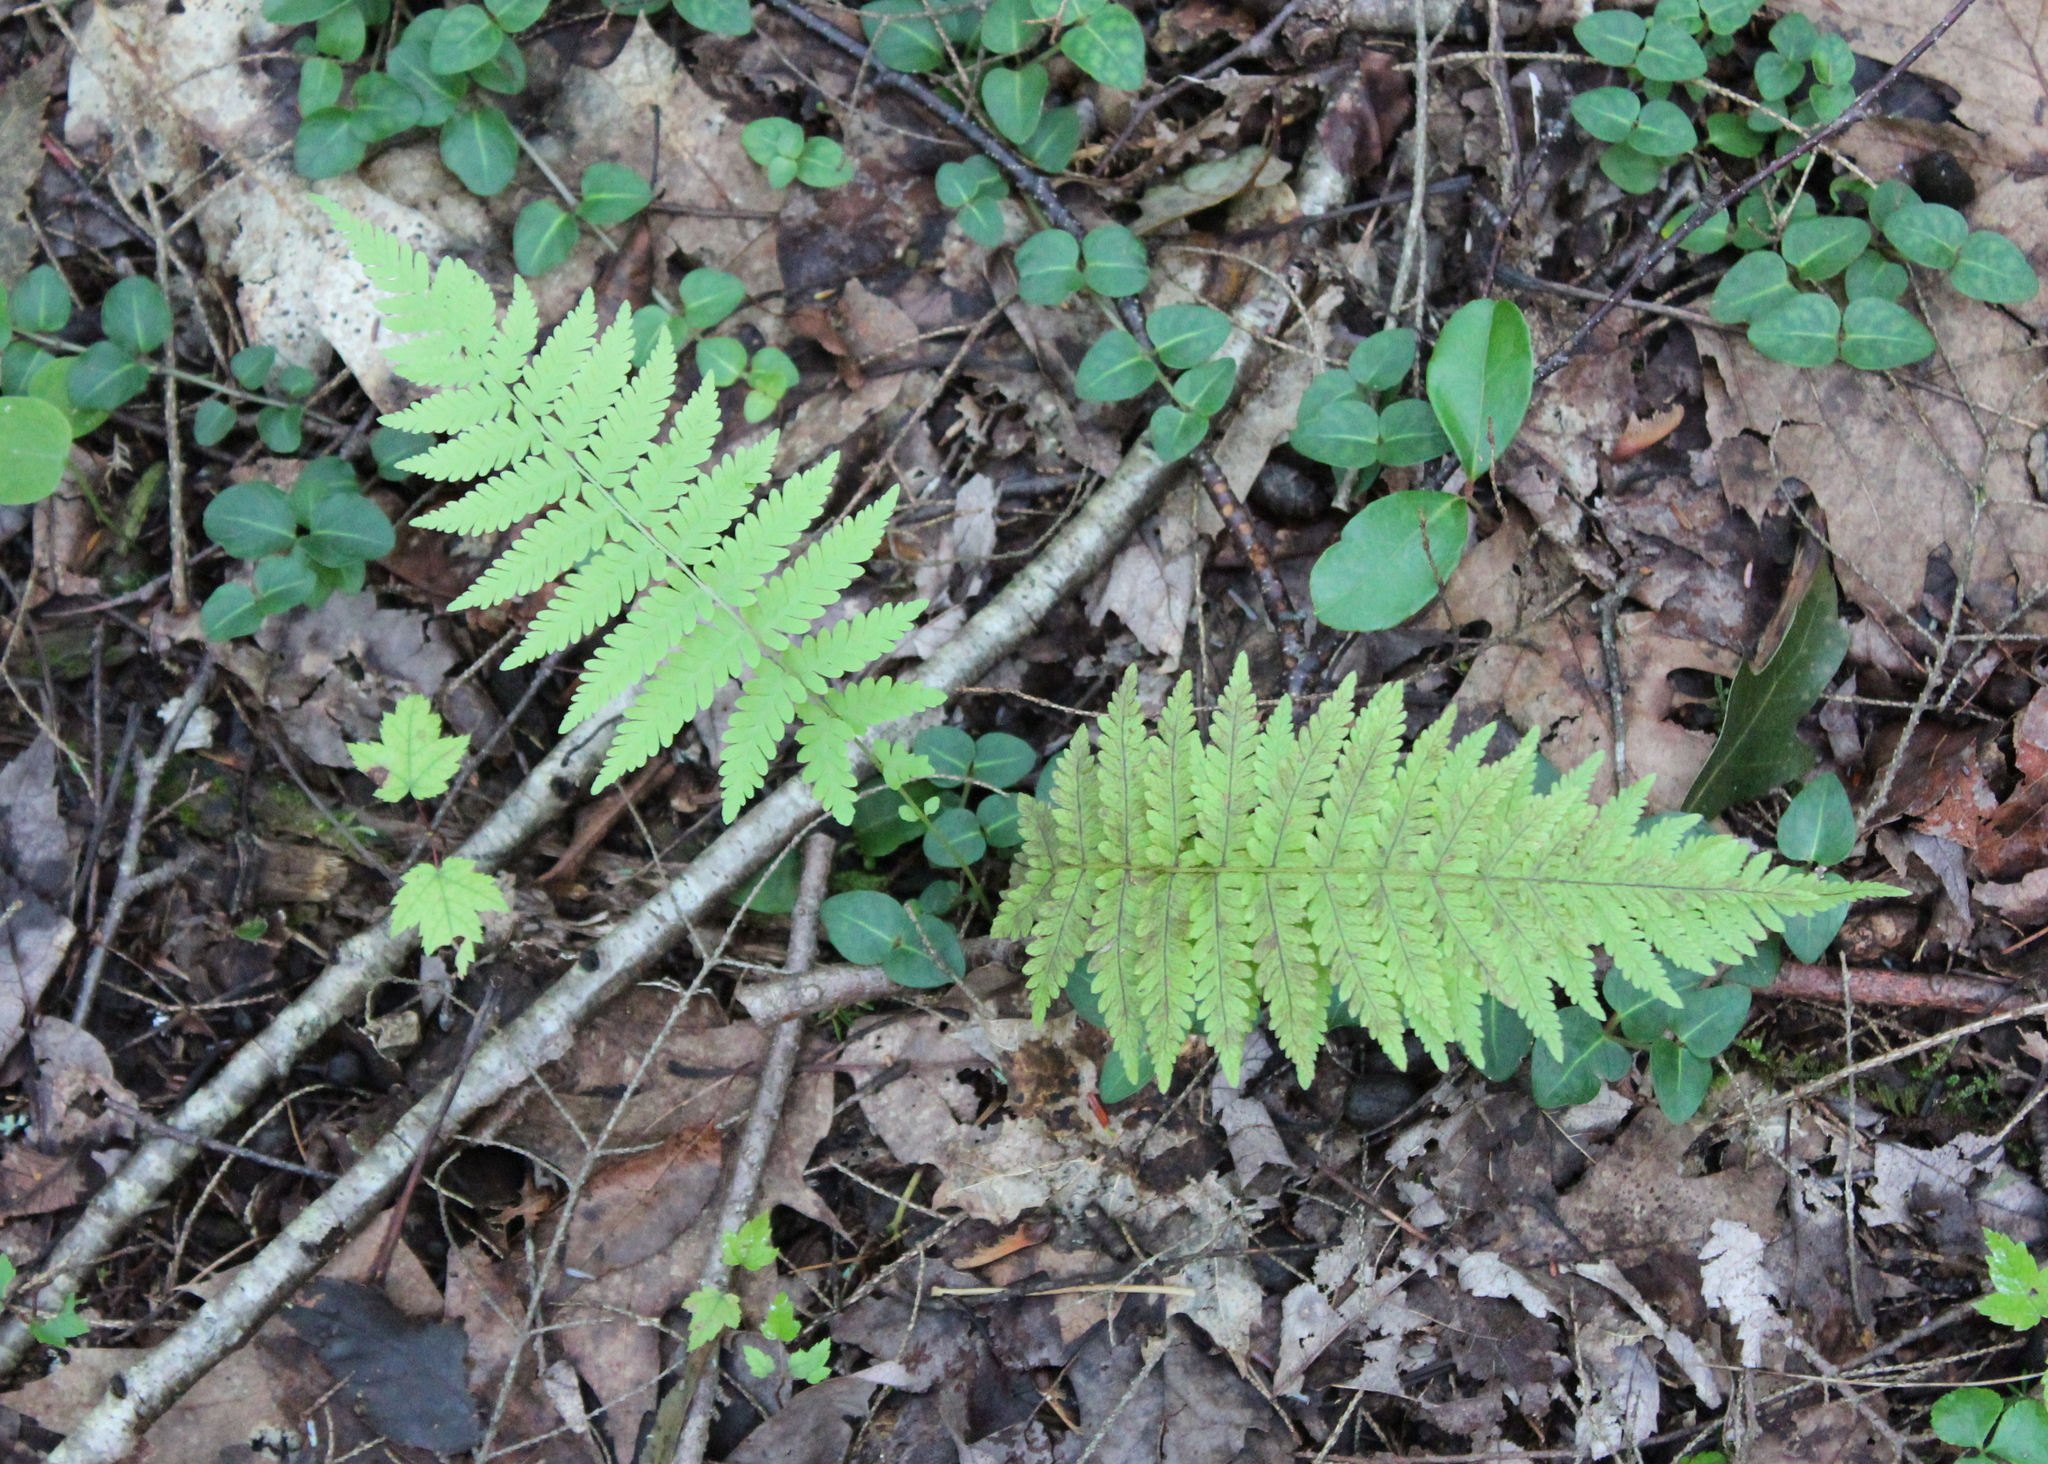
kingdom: Plantae
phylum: Tracheophyta
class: Polypodiopsida
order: Polypodiales
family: Thelypteridaceae
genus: Amauropelta
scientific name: Amauropelta noveboracensis
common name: New york fern
